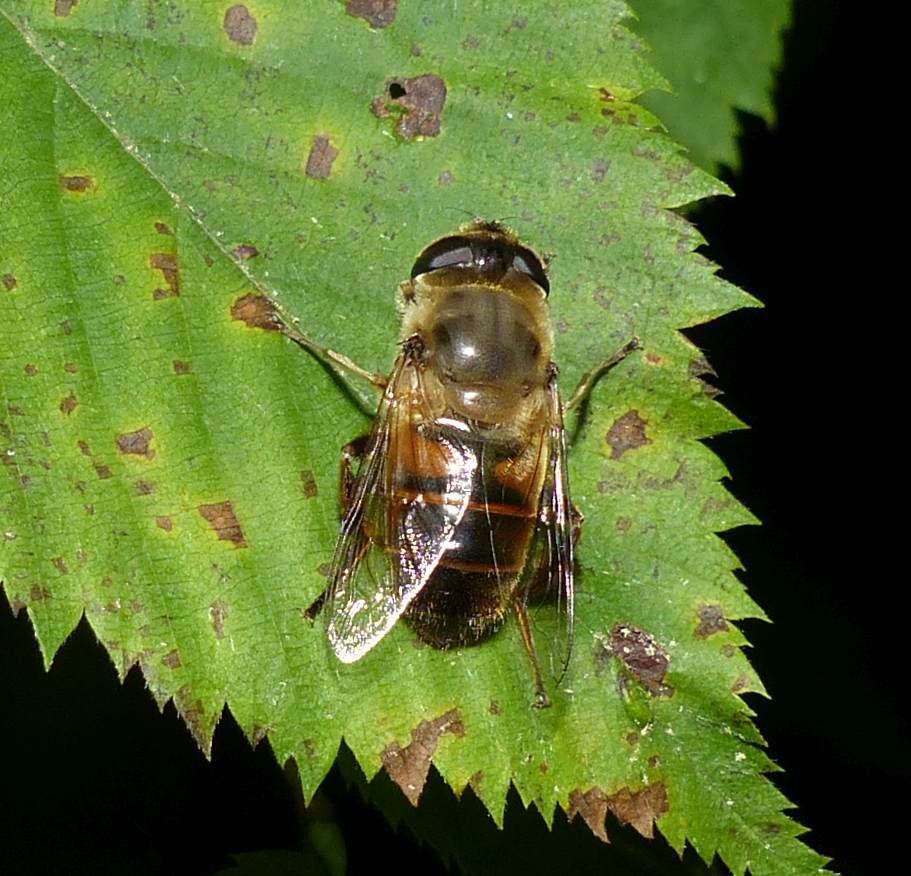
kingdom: Animalia
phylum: Arthropoda
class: Insecta
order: Diptera
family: Syrphidae
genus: Eristalis
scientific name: Eristalis tenax
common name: Drone fly
